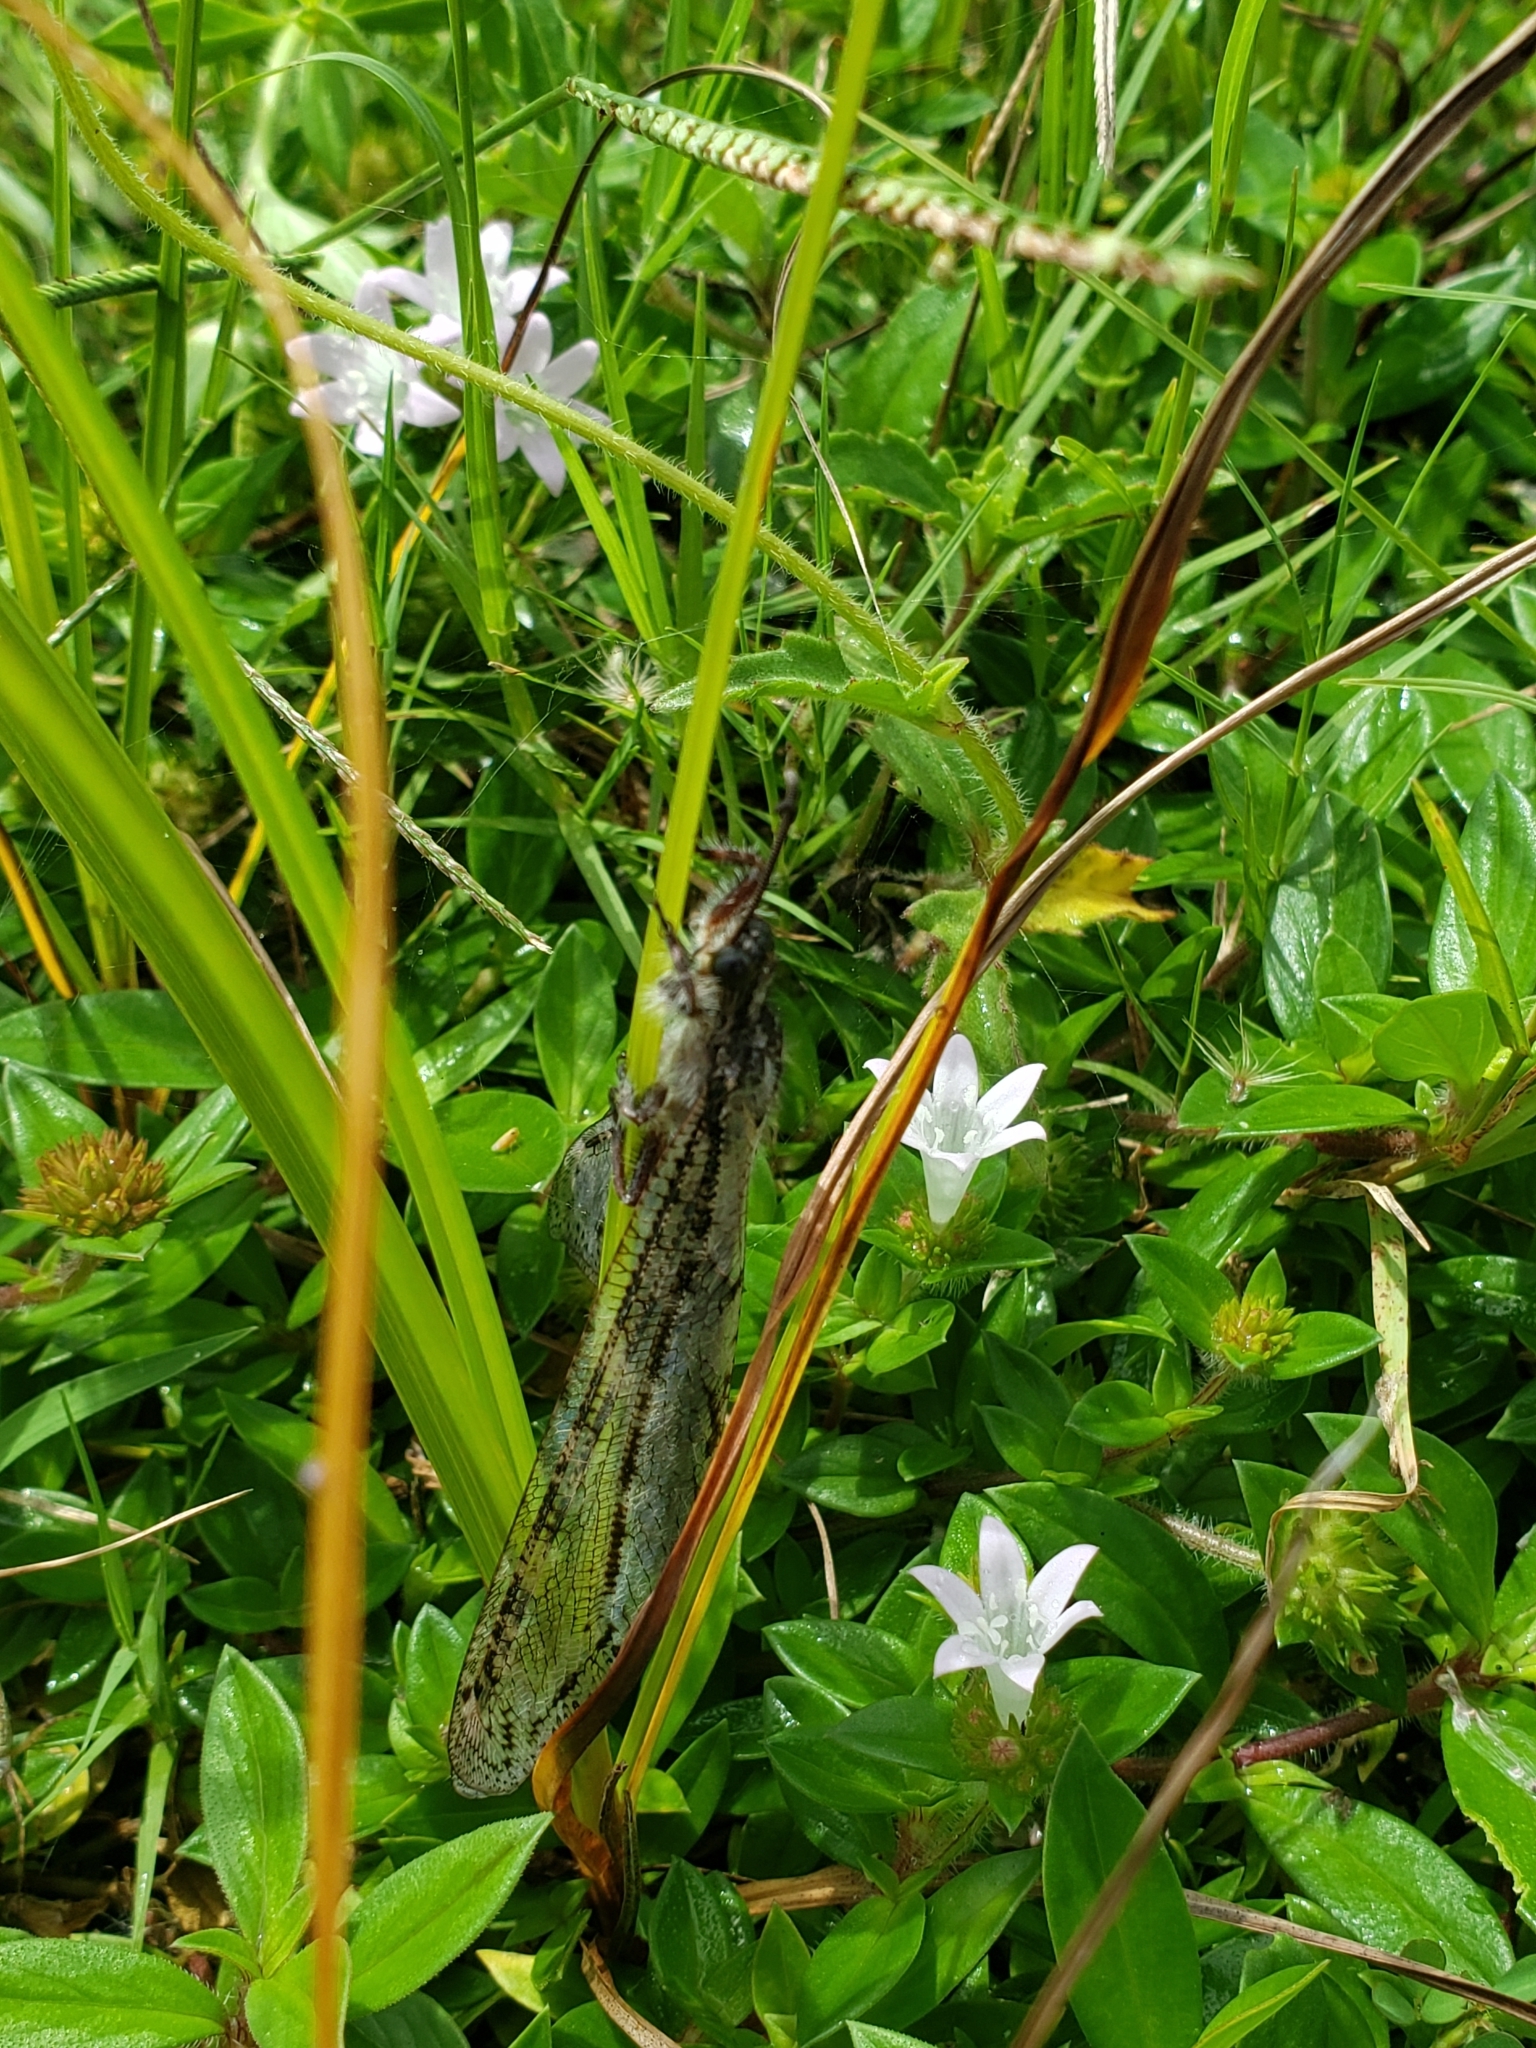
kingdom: Plantae
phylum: Tracheophyta
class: Magnoliopsida
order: Gentianales
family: Rubiaceae
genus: Richardia
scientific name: Richardia grandiflora
